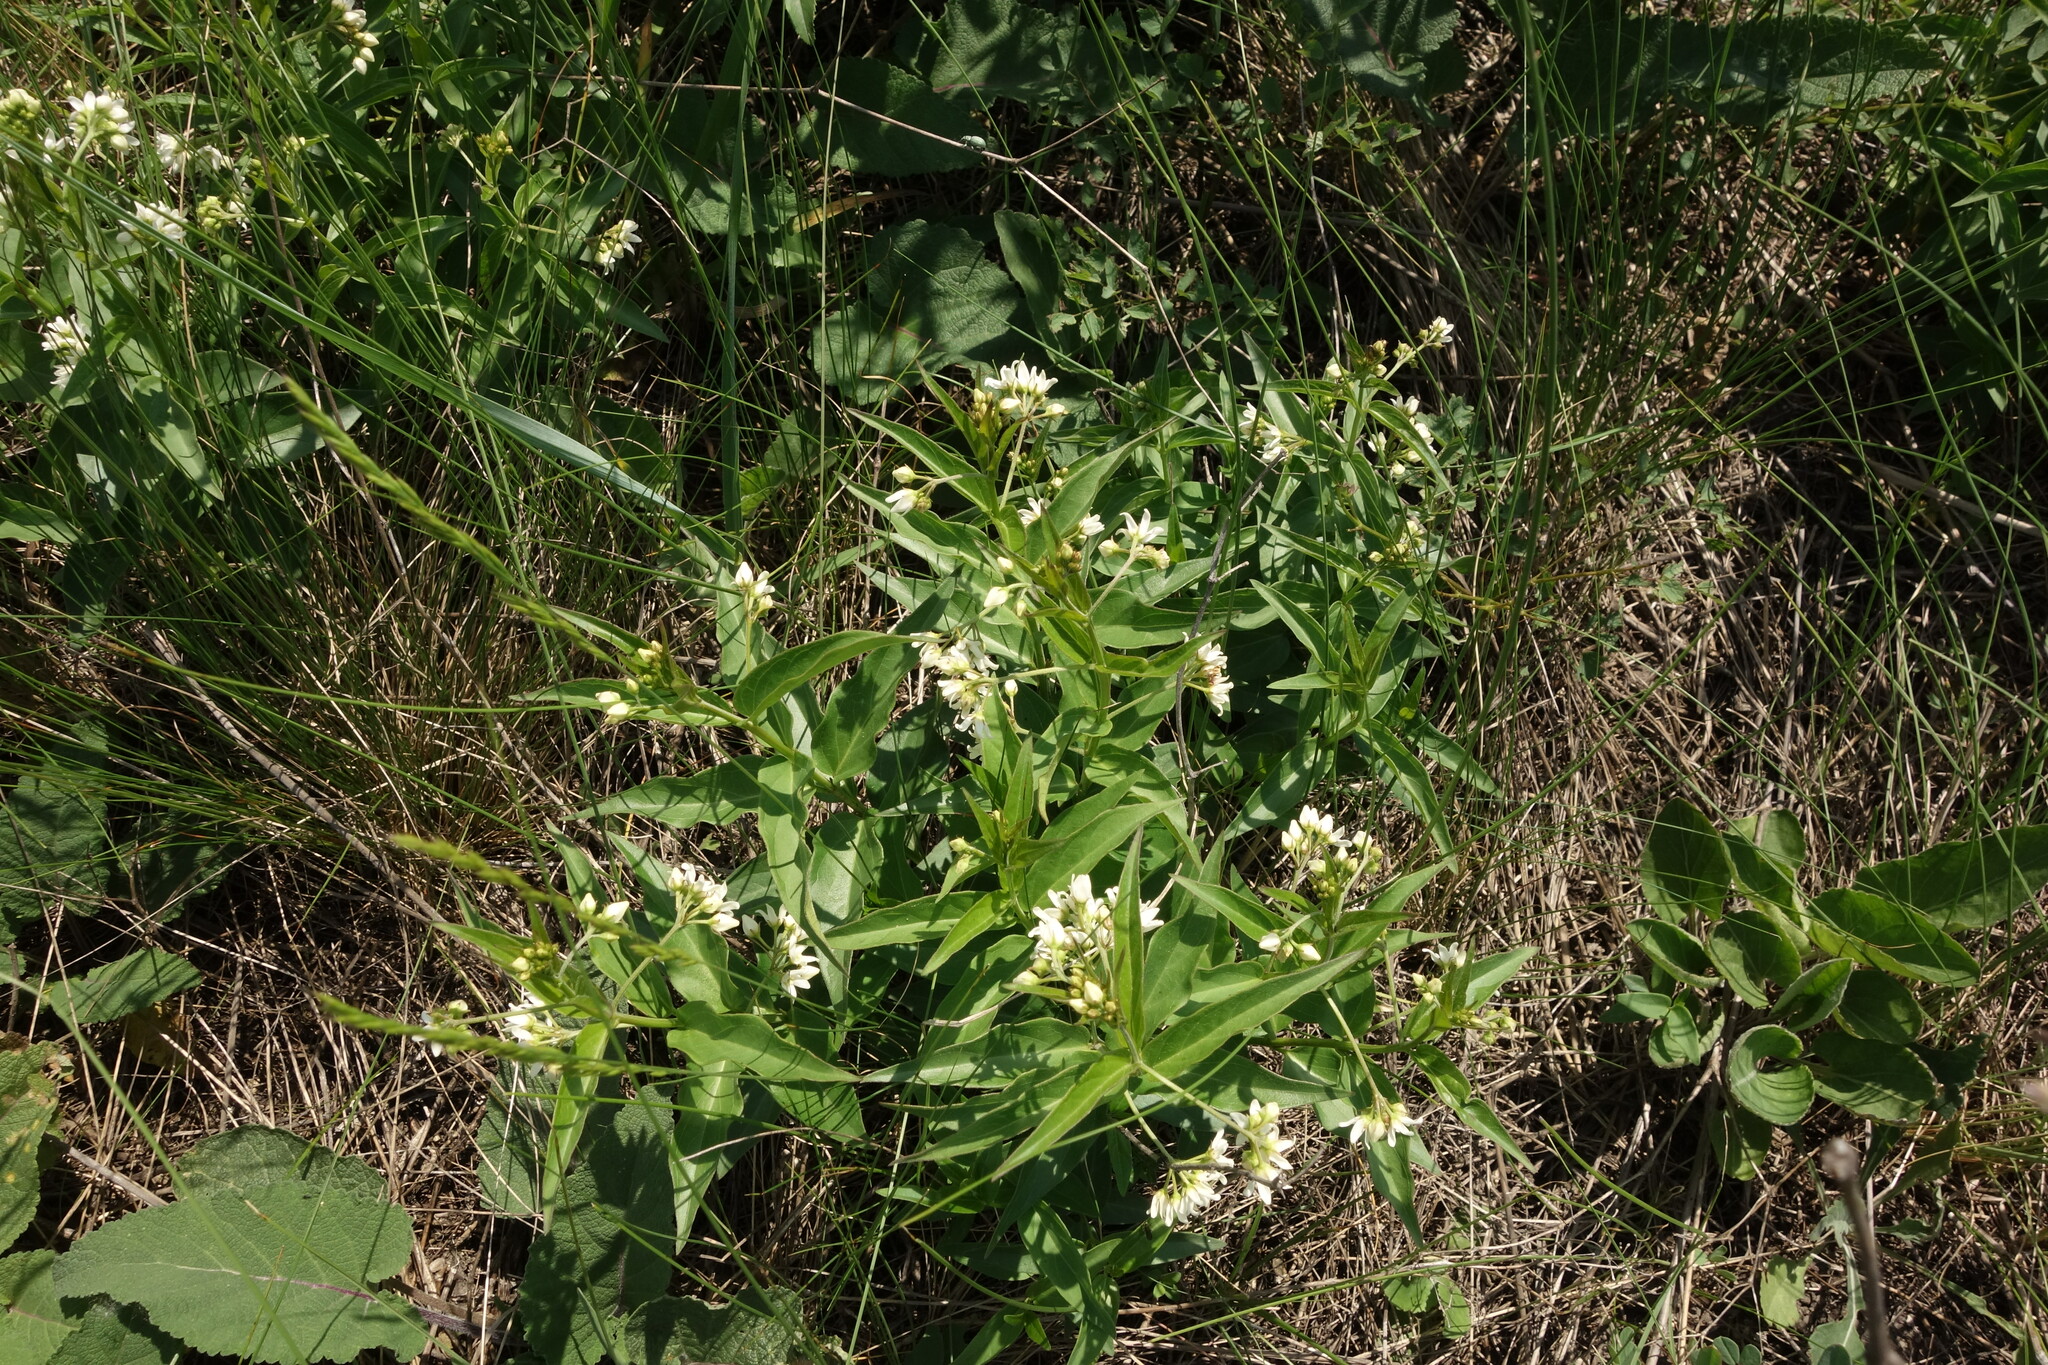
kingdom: Plantae
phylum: Tracheophyta
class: Magnoliopsida
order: Gentianales
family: Apocynaceae
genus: Vincetoxicum
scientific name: Vincetoxicum hirundinaria
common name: White swallowwort
